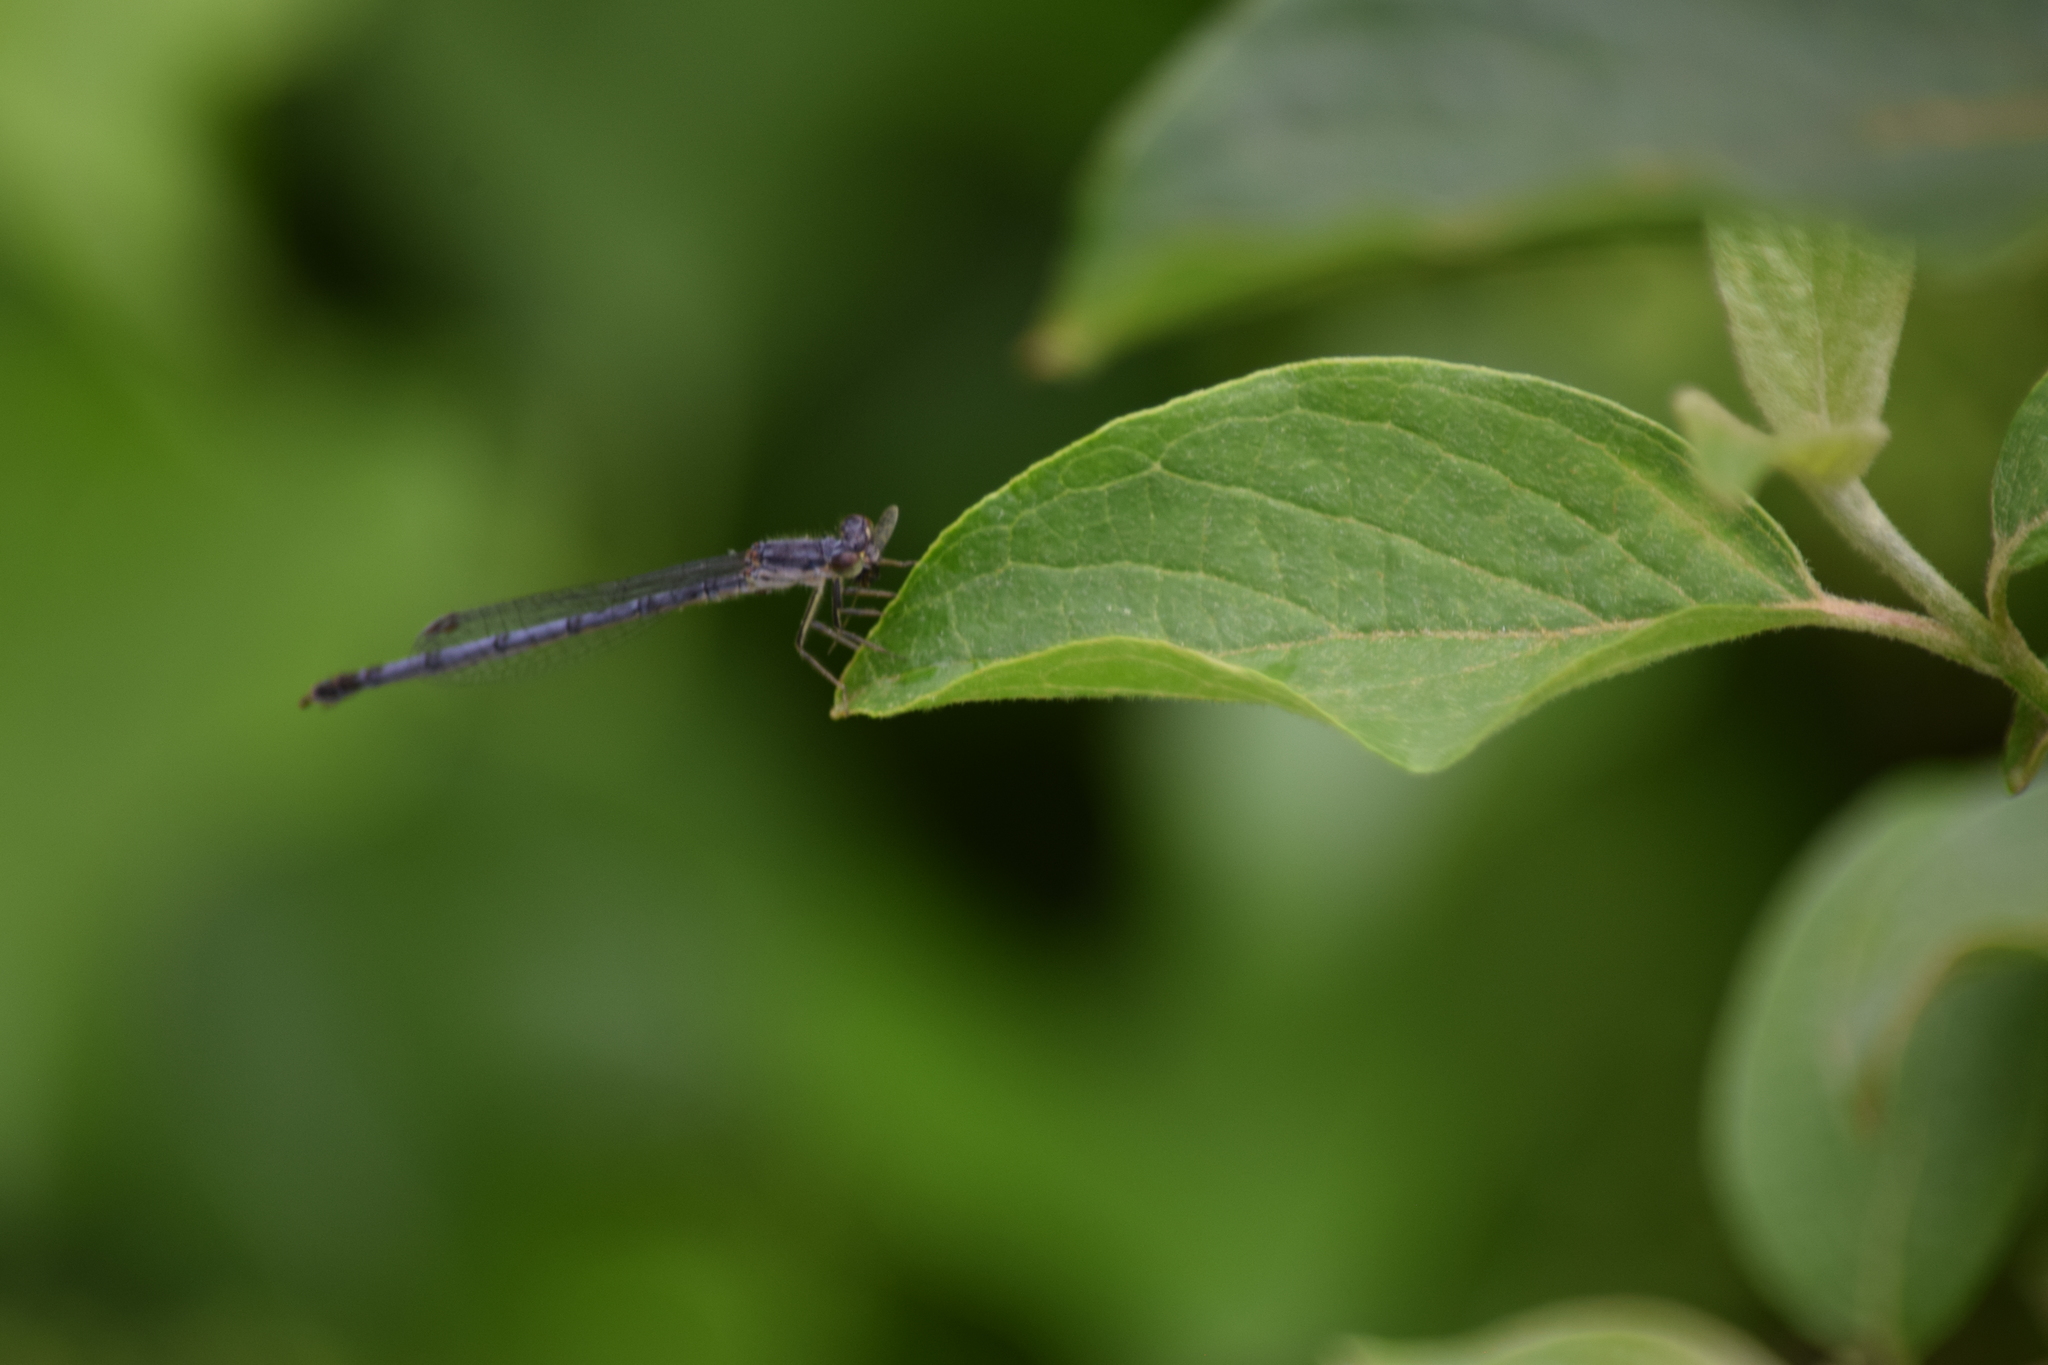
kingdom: Animalia
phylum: Arthropoda
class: Insecta
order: Odonata
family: Coenagrionidae
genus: Ischnura
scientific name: Ischnura posita
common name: Fragile forktail
